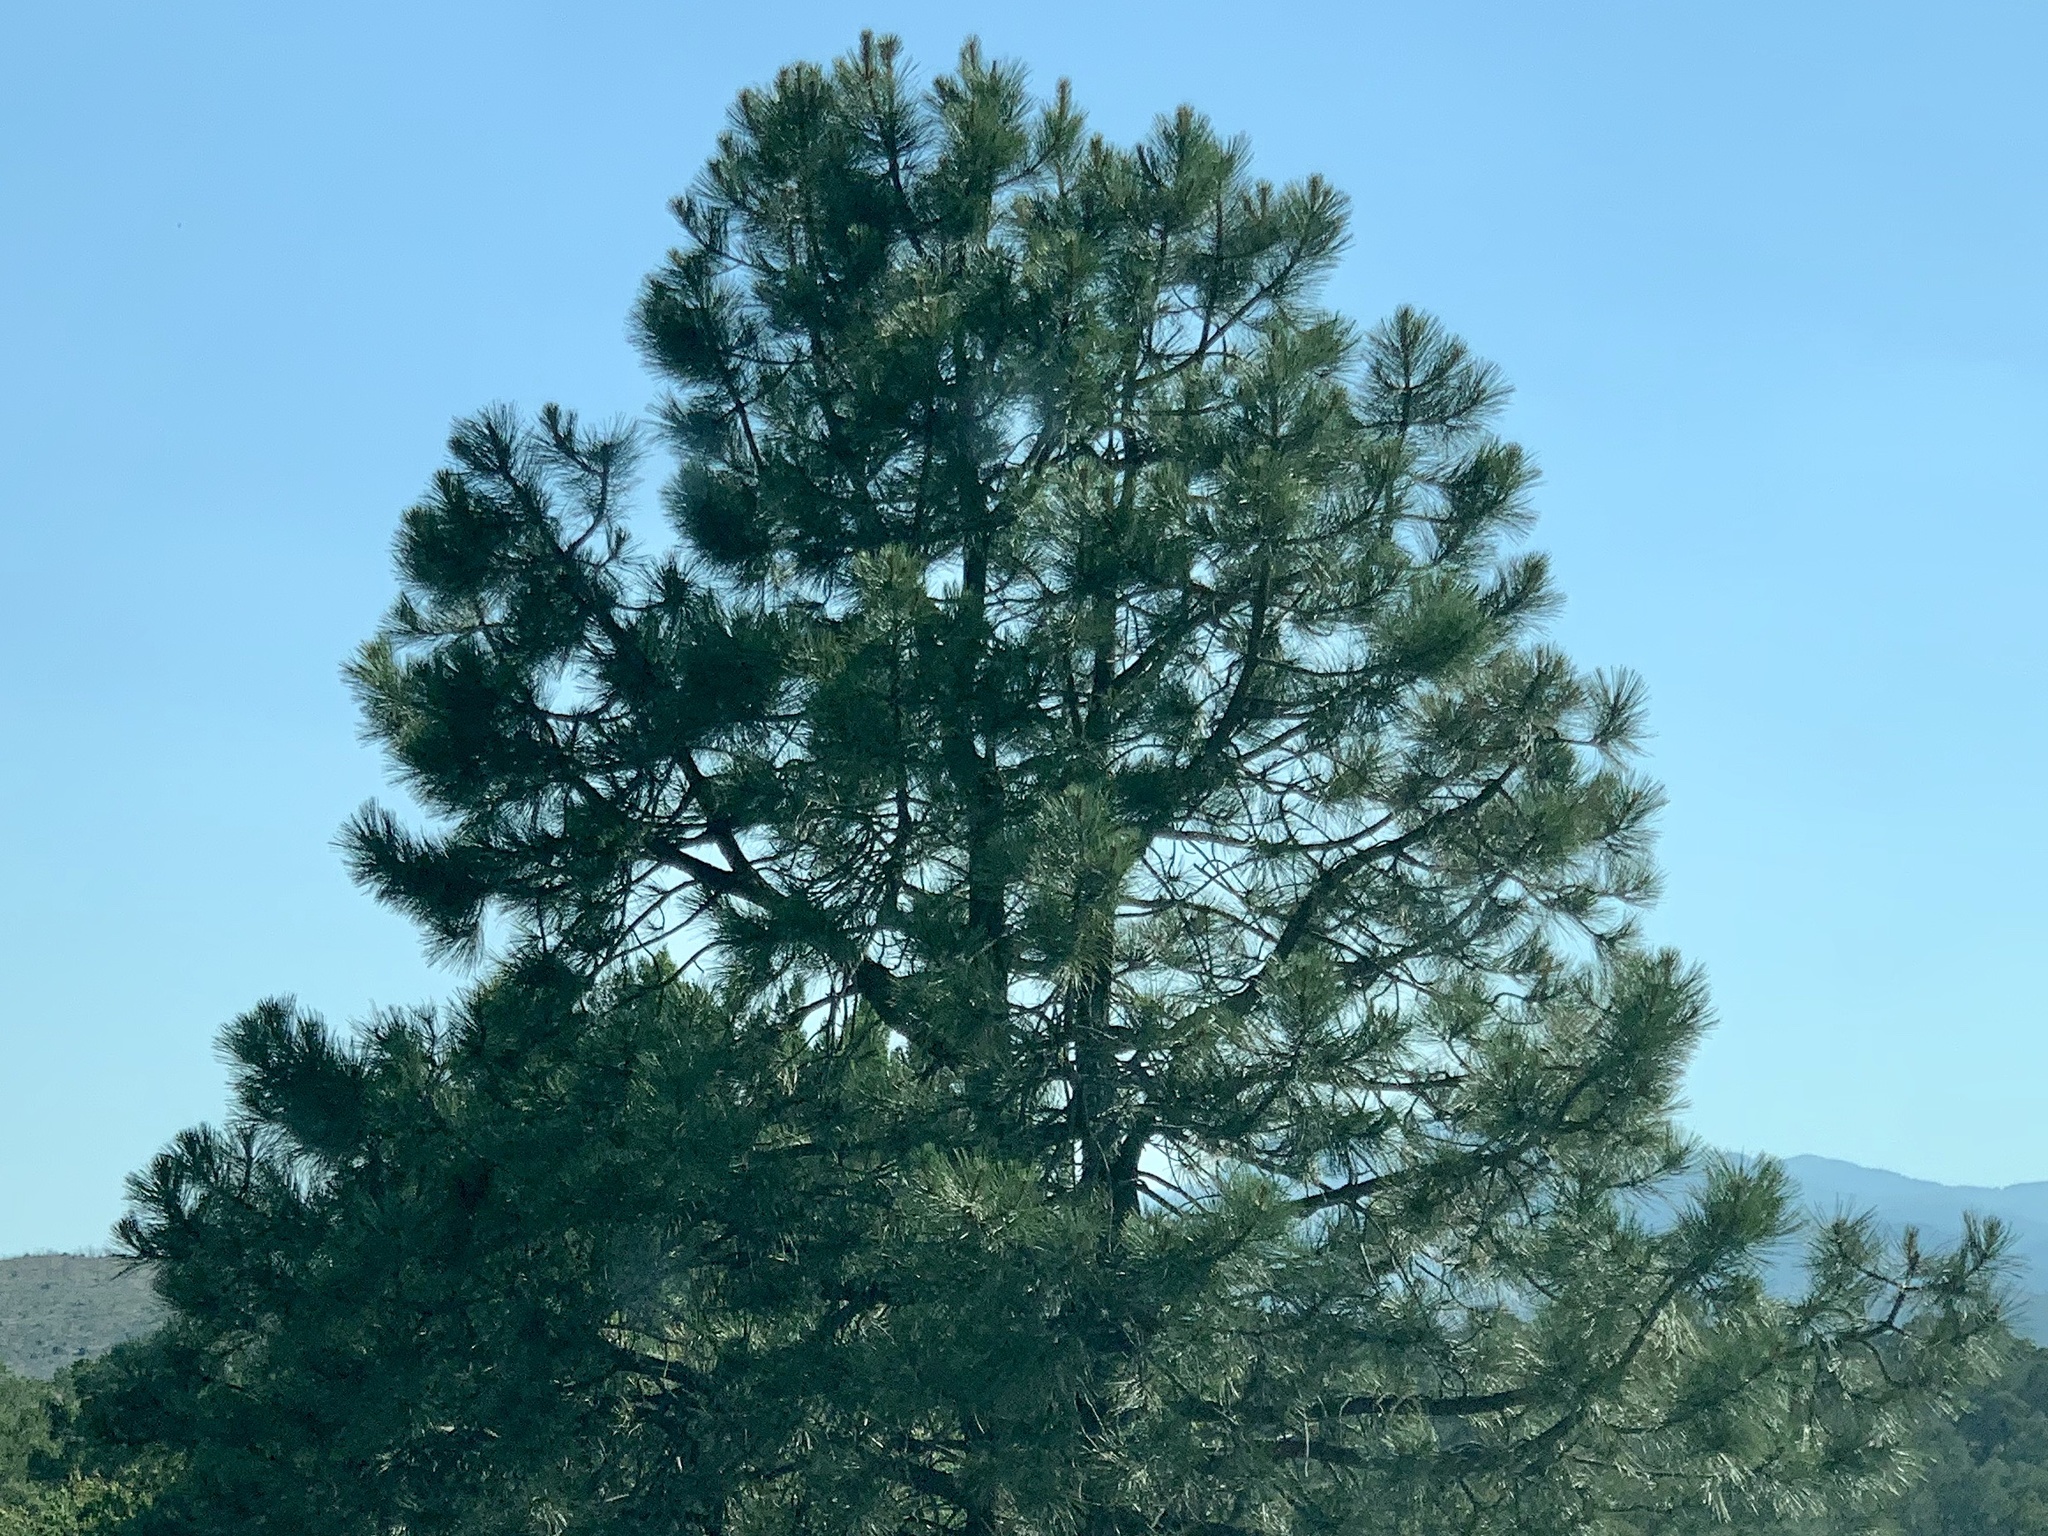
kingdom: Plantae
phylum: Tracheophyta
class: Pinopsida
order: Pinales
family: Pinaceae
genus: Pinus
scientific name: Pinus ponderosa
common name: Western yellow-pine
